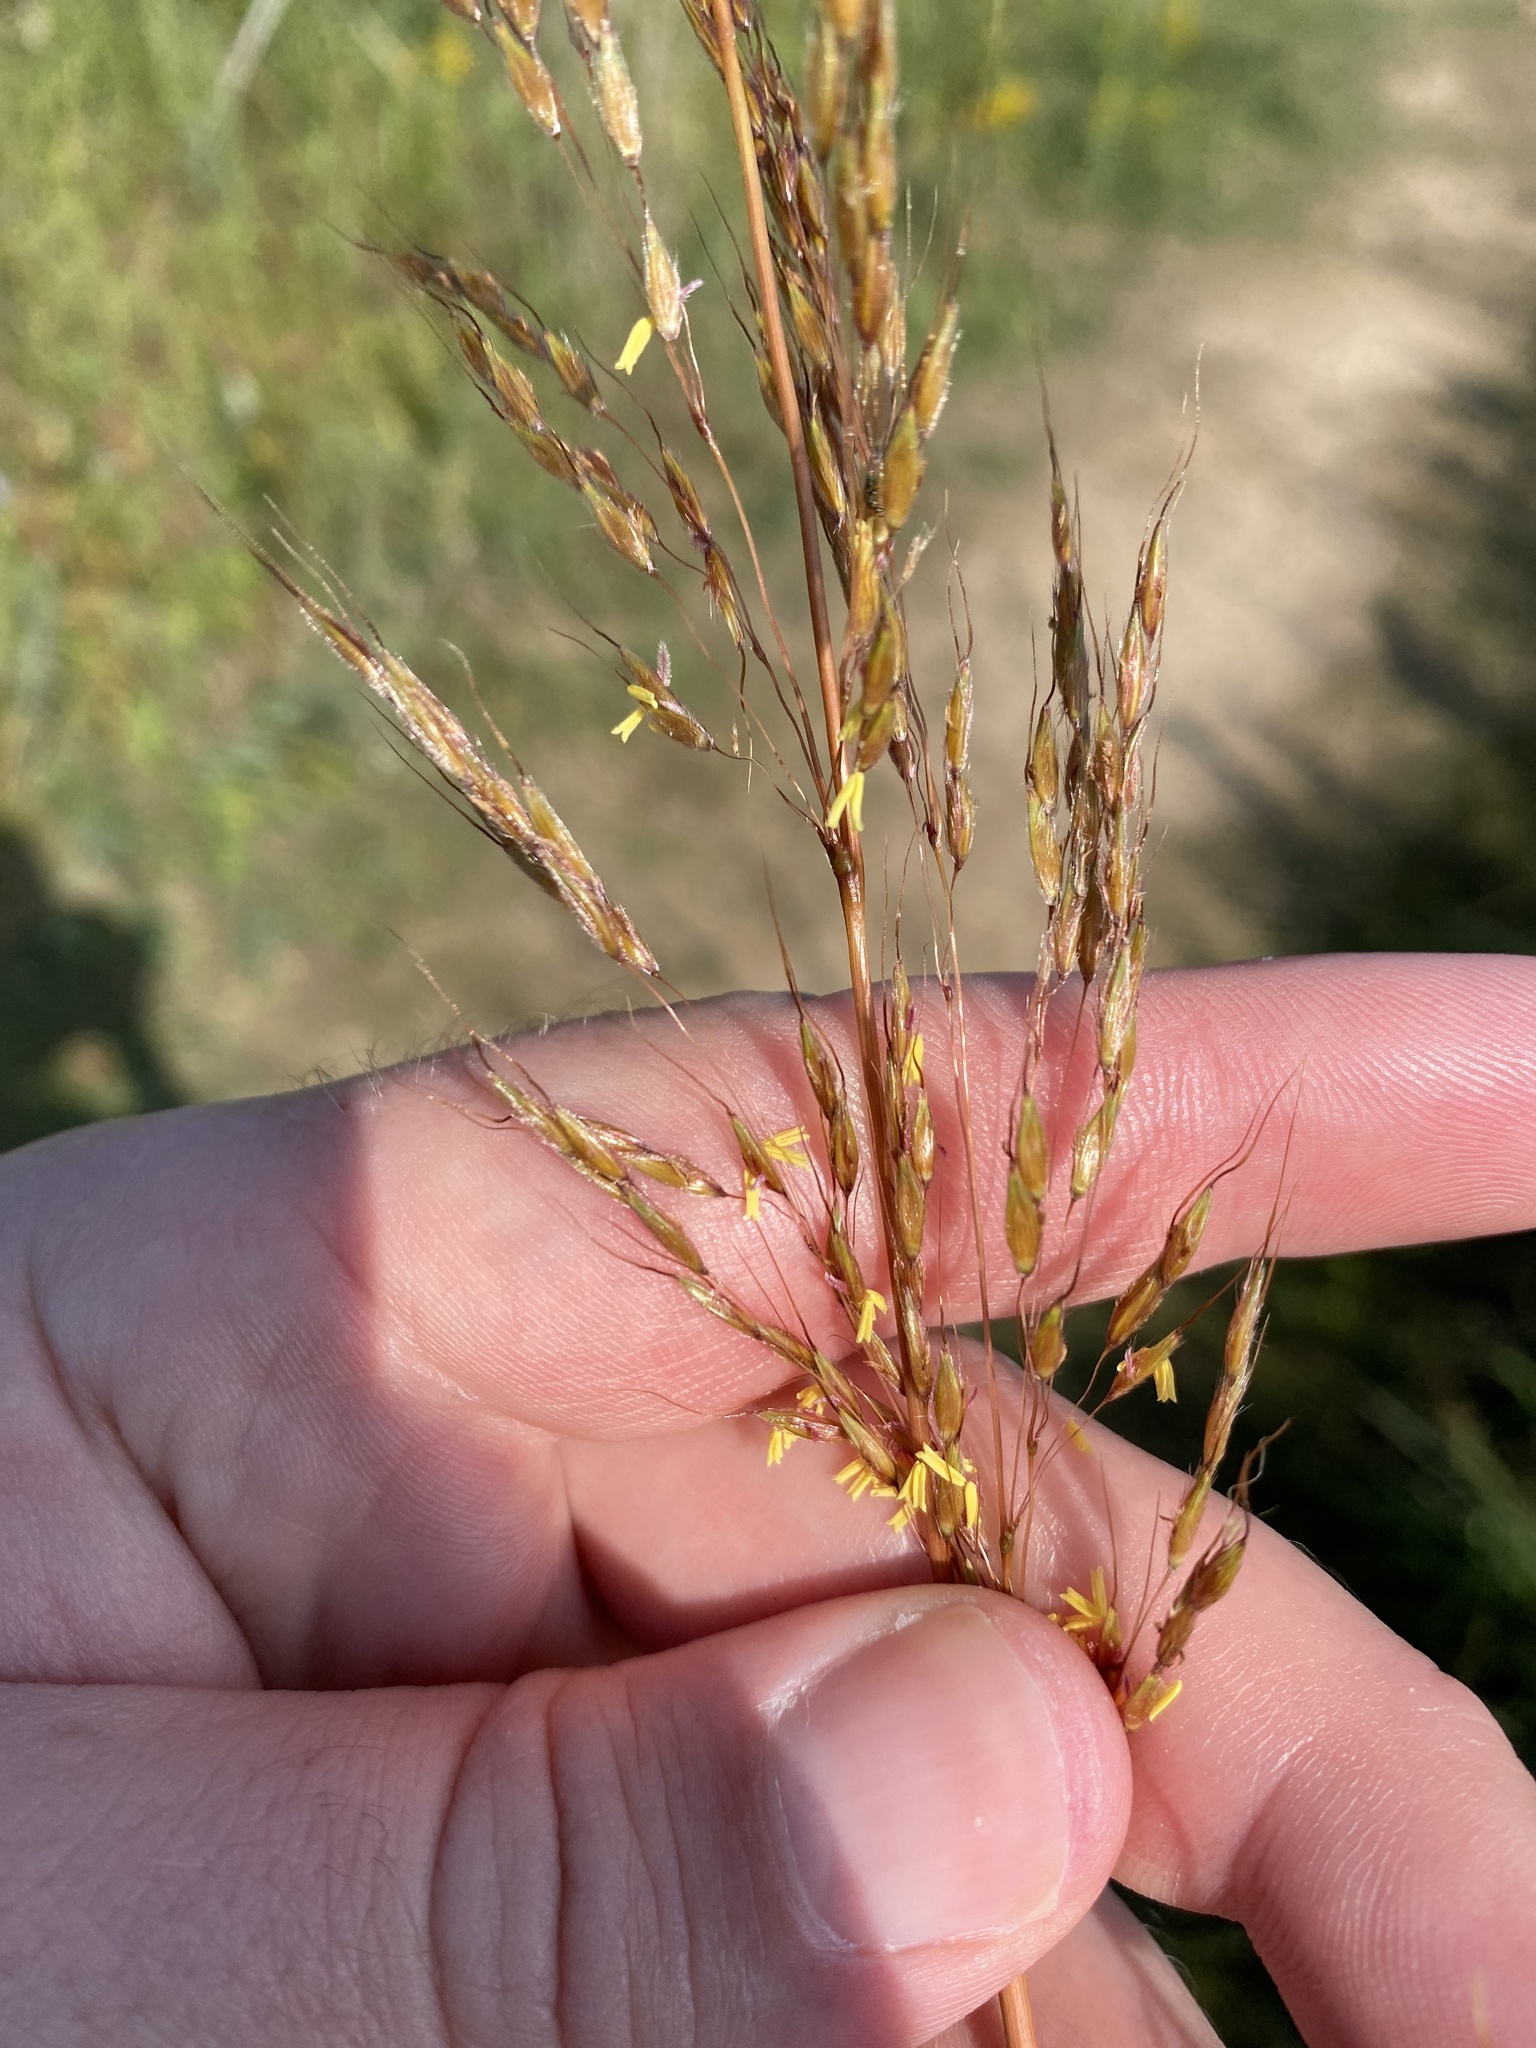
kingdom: Plantae
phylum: Tracheophyta
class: Liliopsida
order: Poales
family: Poaceae
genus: Sorghastrum
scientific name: Sorghastrum nutans
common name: Indian grass
